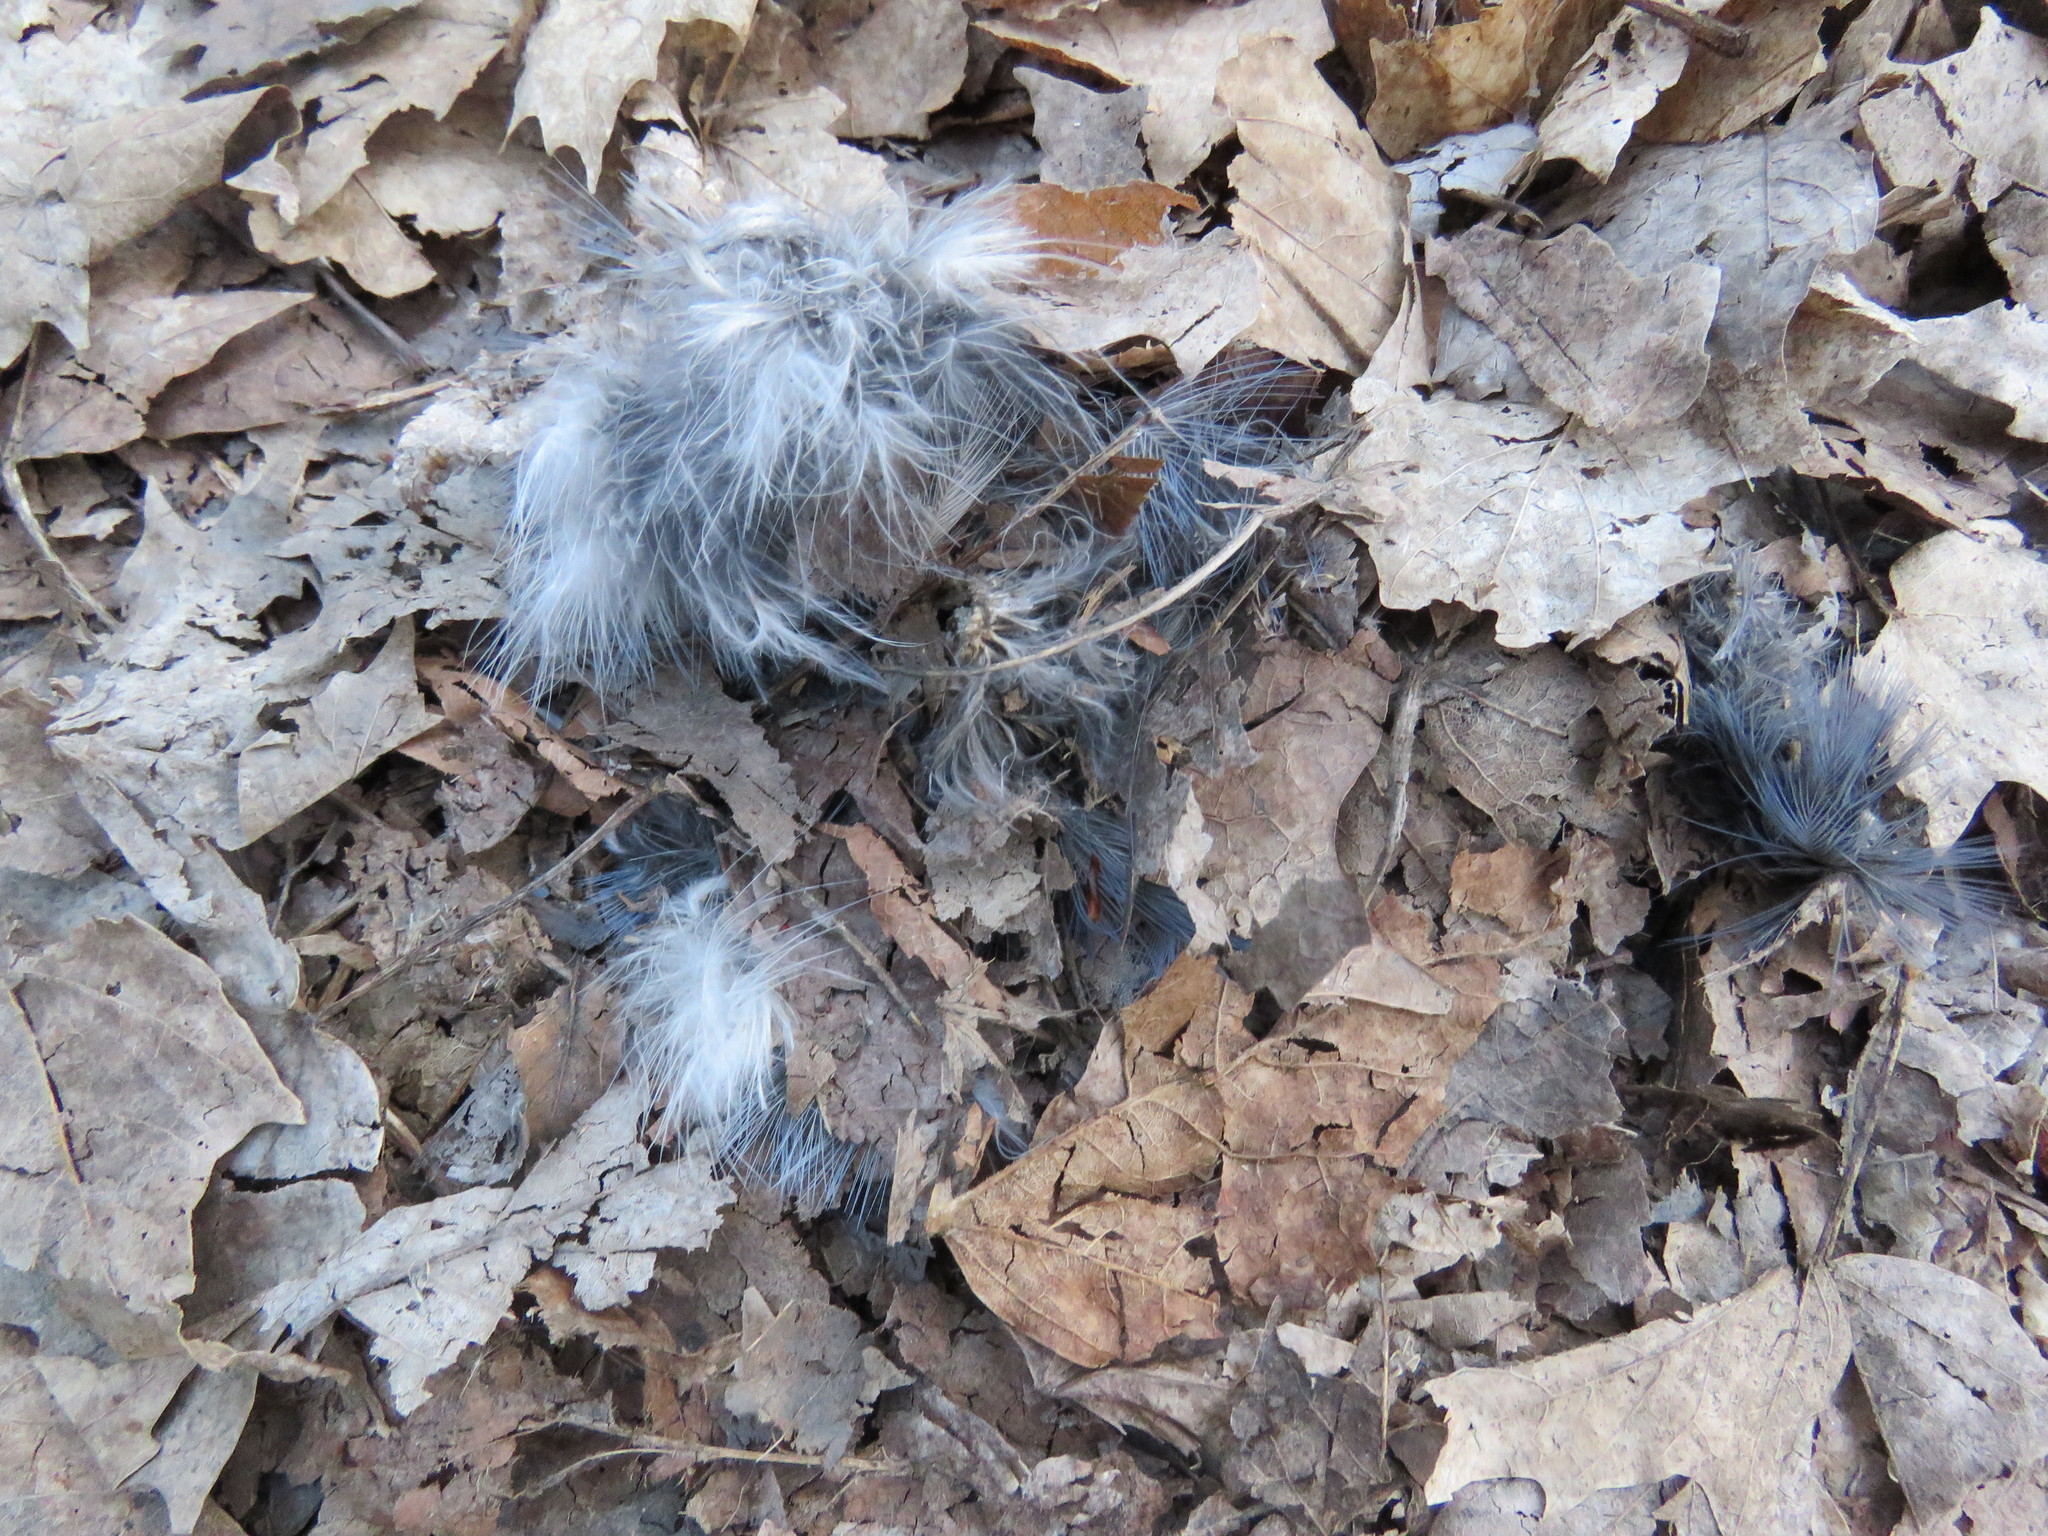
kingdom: Animalia
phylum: Chordata
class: Aves
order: Passeriformes
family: Corvidae
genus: Cyanocitta
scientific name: Cyanocitta cristata
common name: Blue jay
